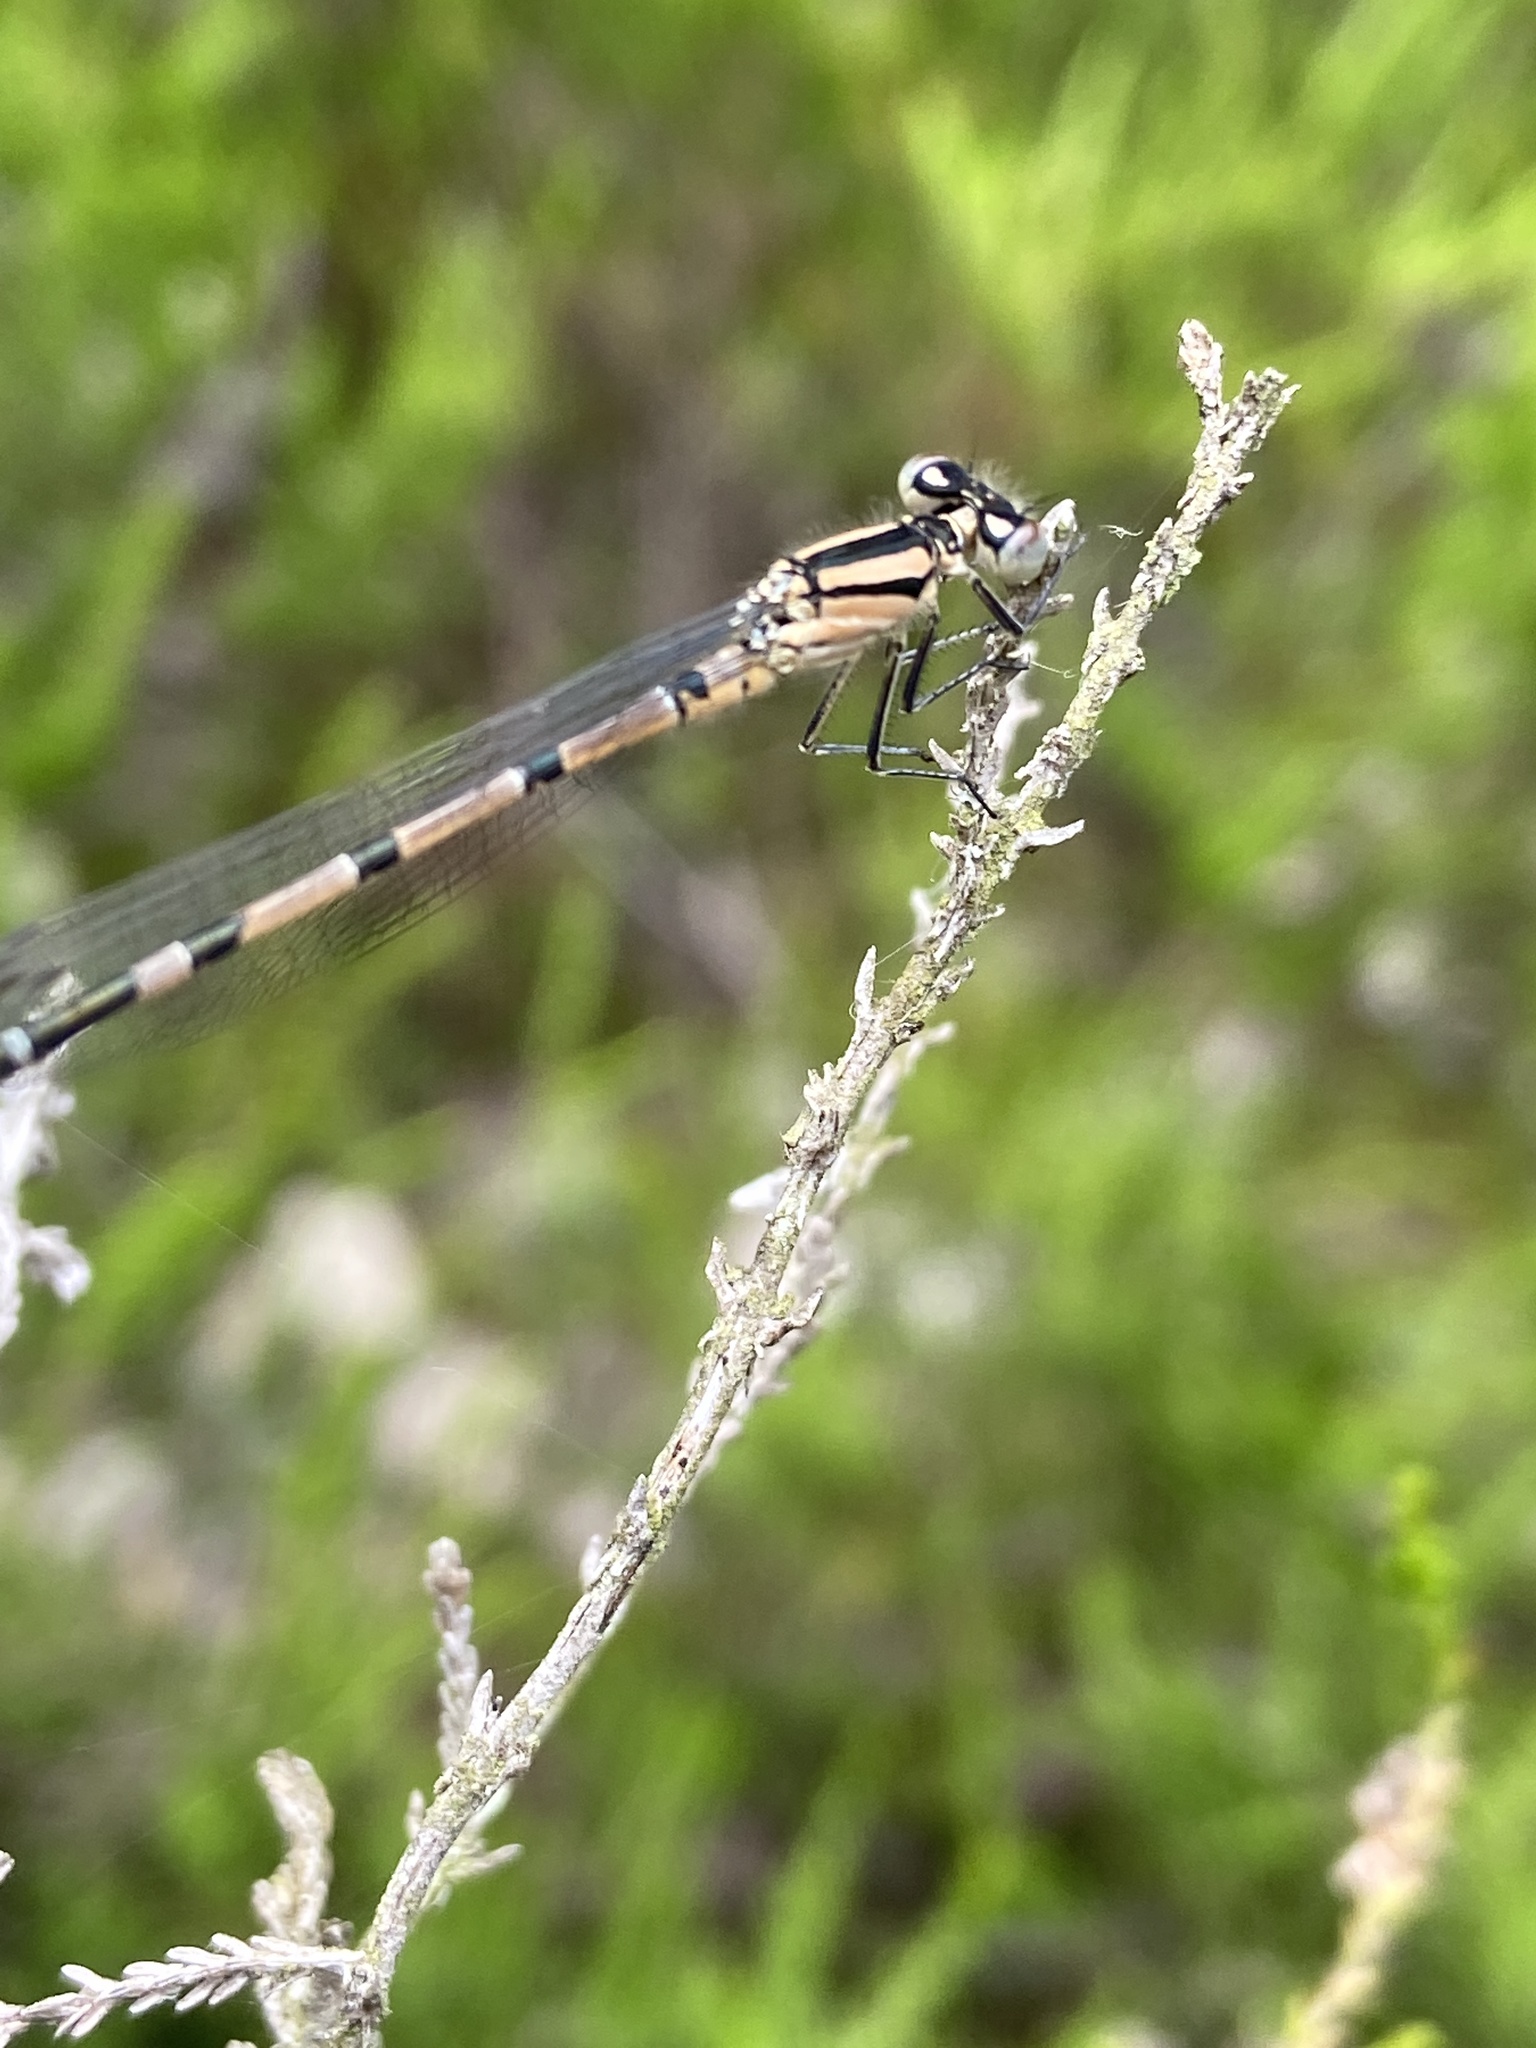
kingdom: Animalia
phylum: Arthropoda
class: Insecta
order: Odonata
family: Coenagrionidae
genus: Enallagma
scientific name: Enallagma cyathigerum
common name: Common blue damselfly
